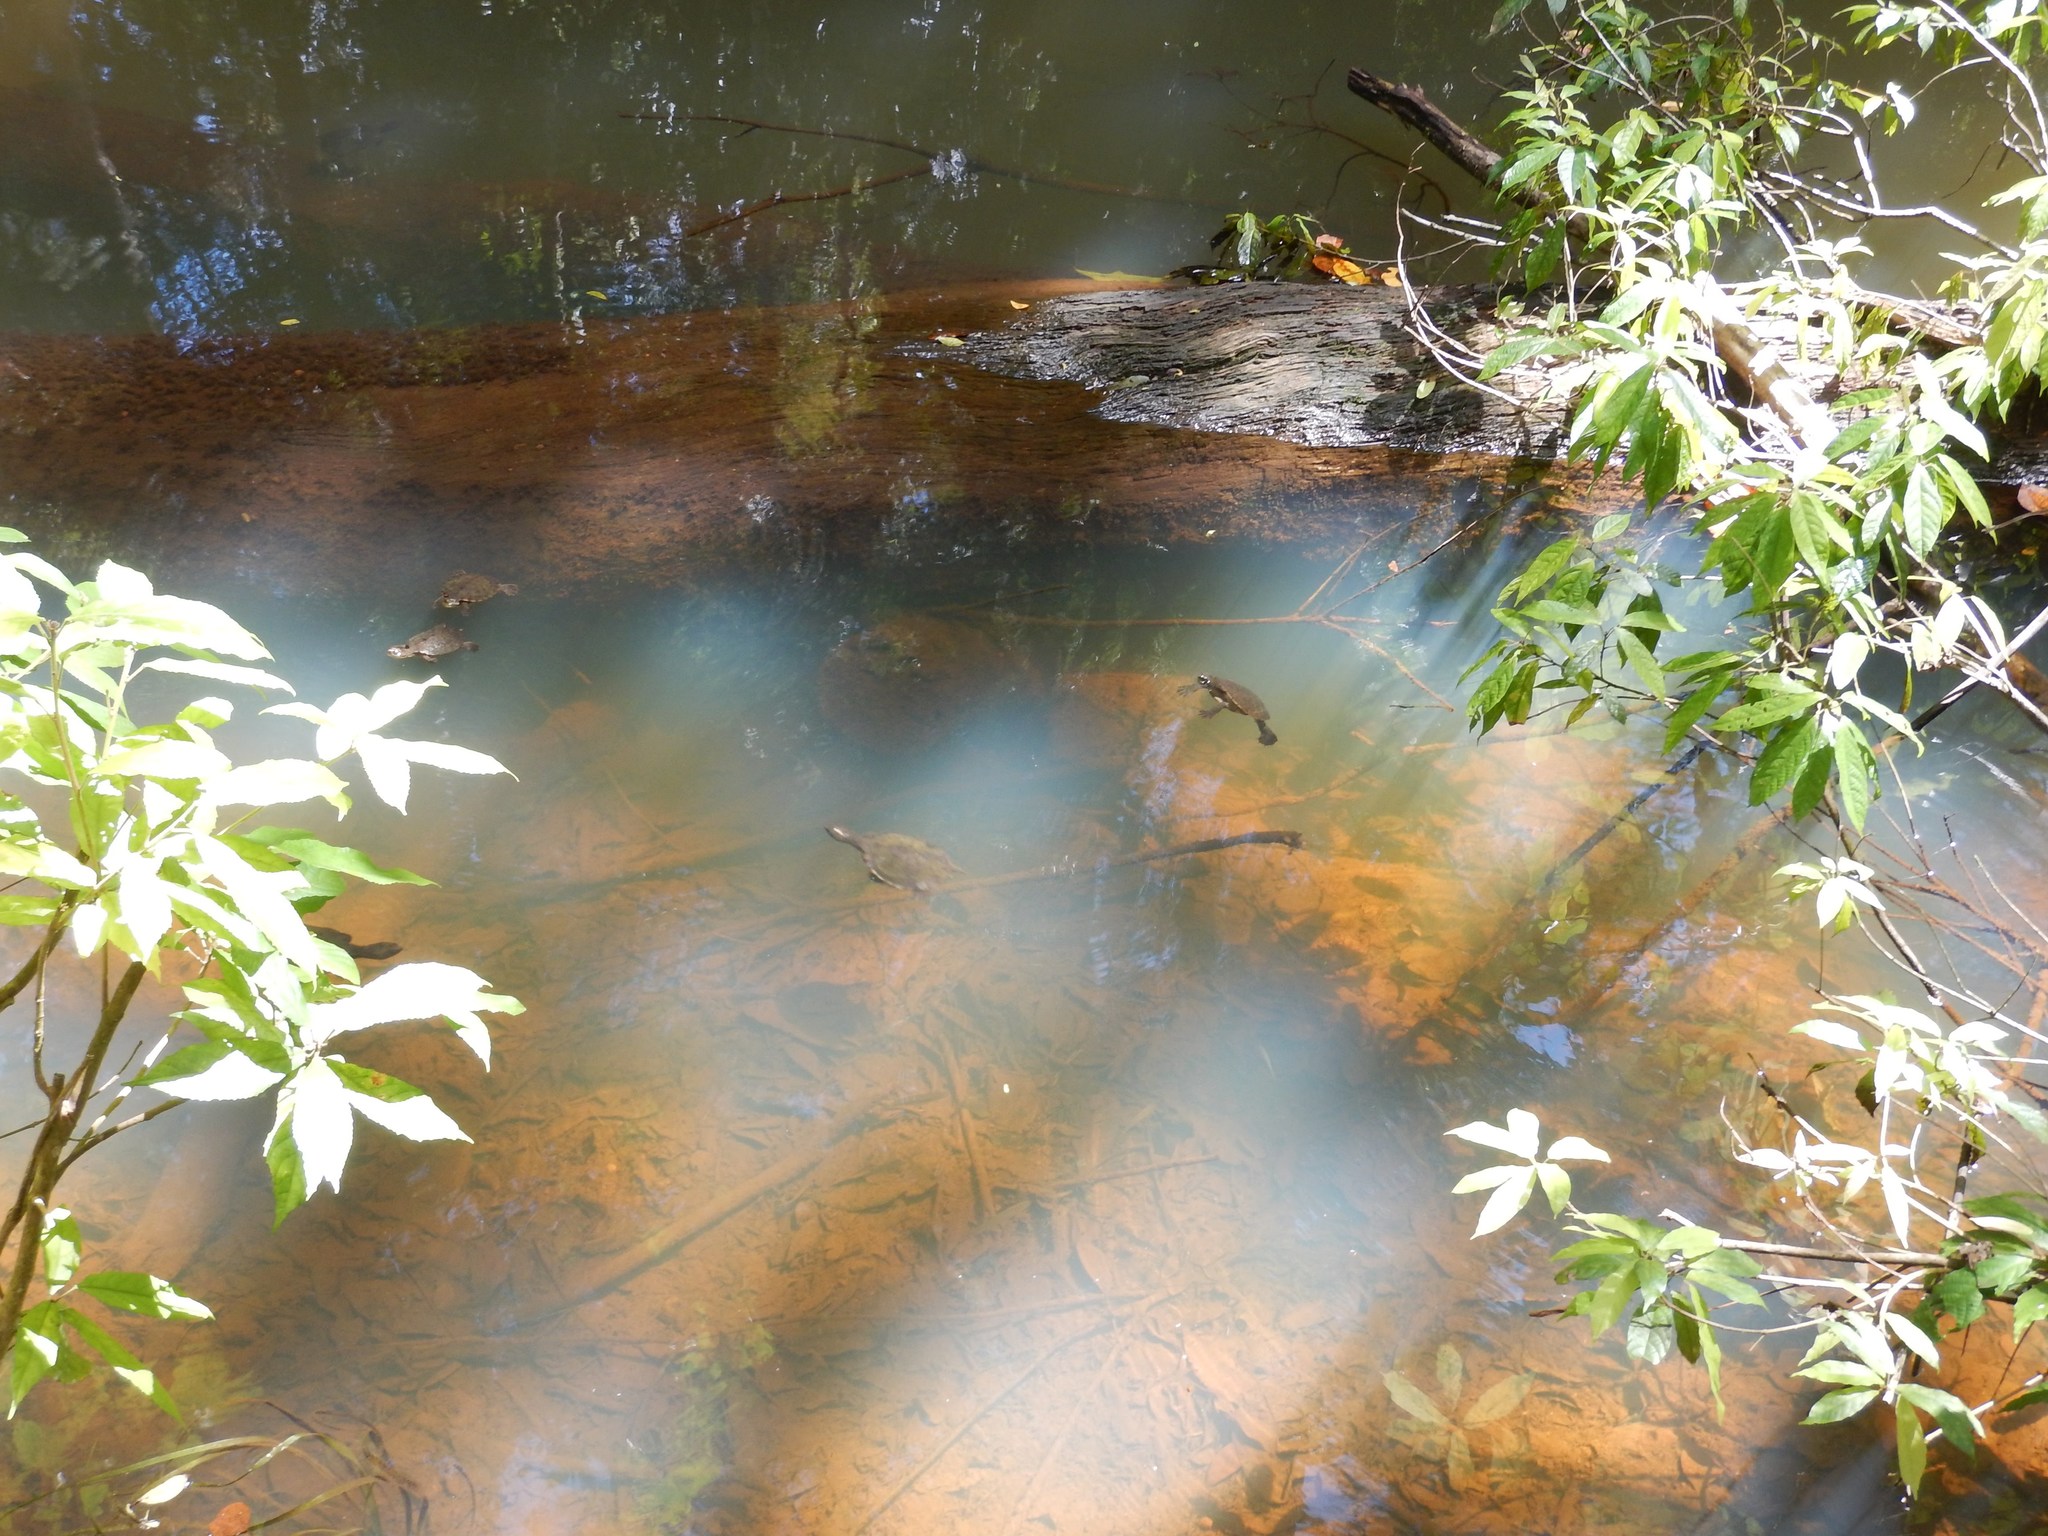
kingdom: Animalia
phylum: Chordata
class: Testudines
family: Chelidae
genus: Myuchelys
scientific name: Myuchelys latisternum
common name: Serrated snapping turtle
